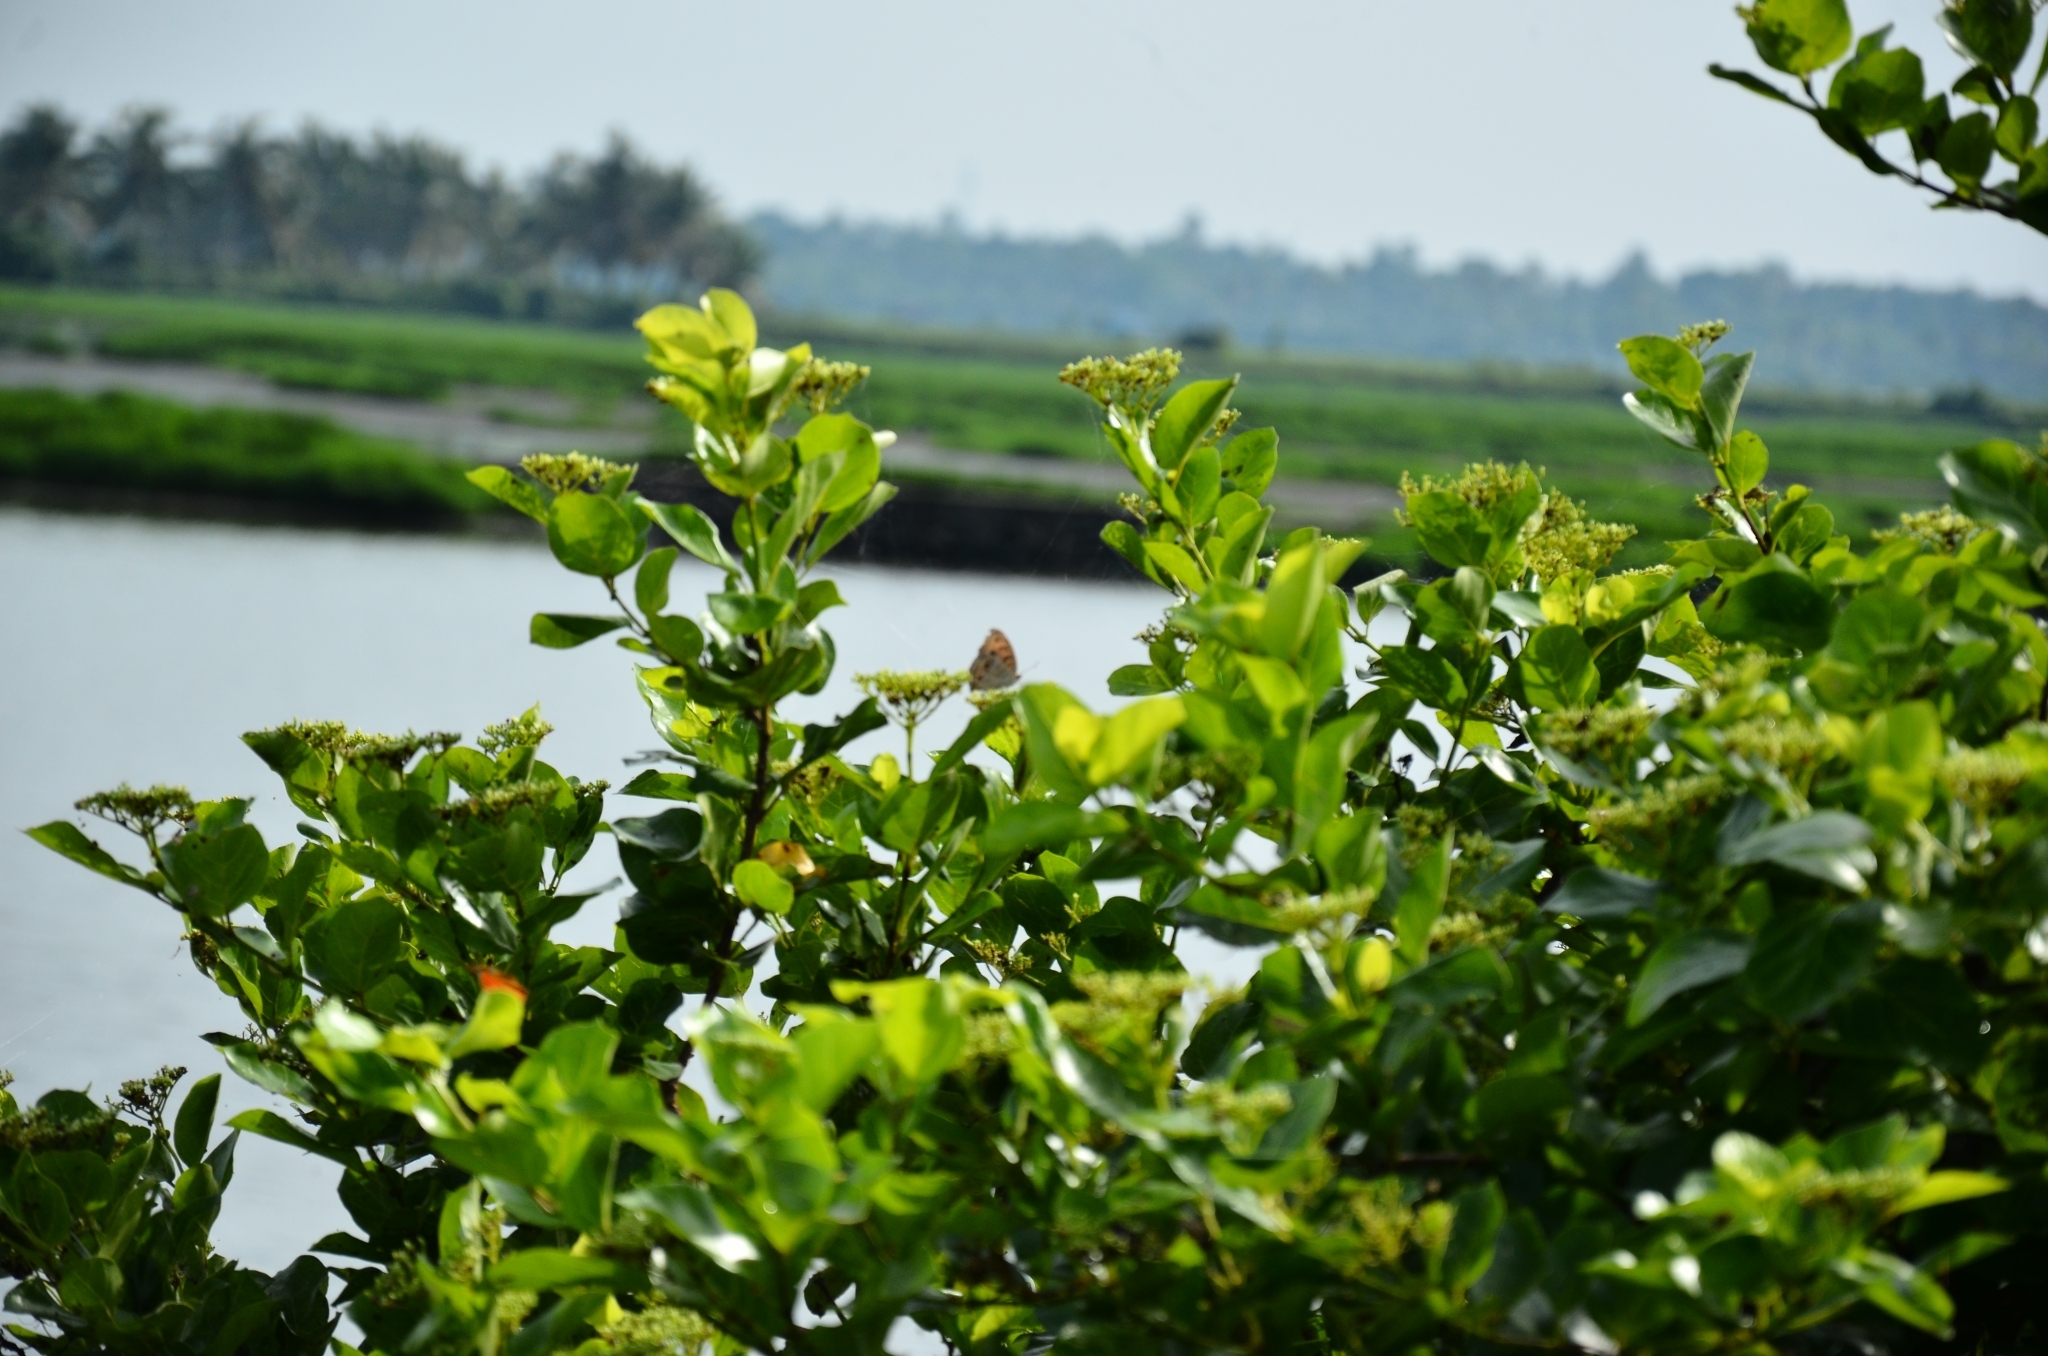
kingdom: Plantae
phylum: Tracheophyta
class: Magnoliopsida
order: Lamiales
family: Lamiaceae
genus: Premna
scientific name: Premna serratifolia
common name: Bastard guelder
